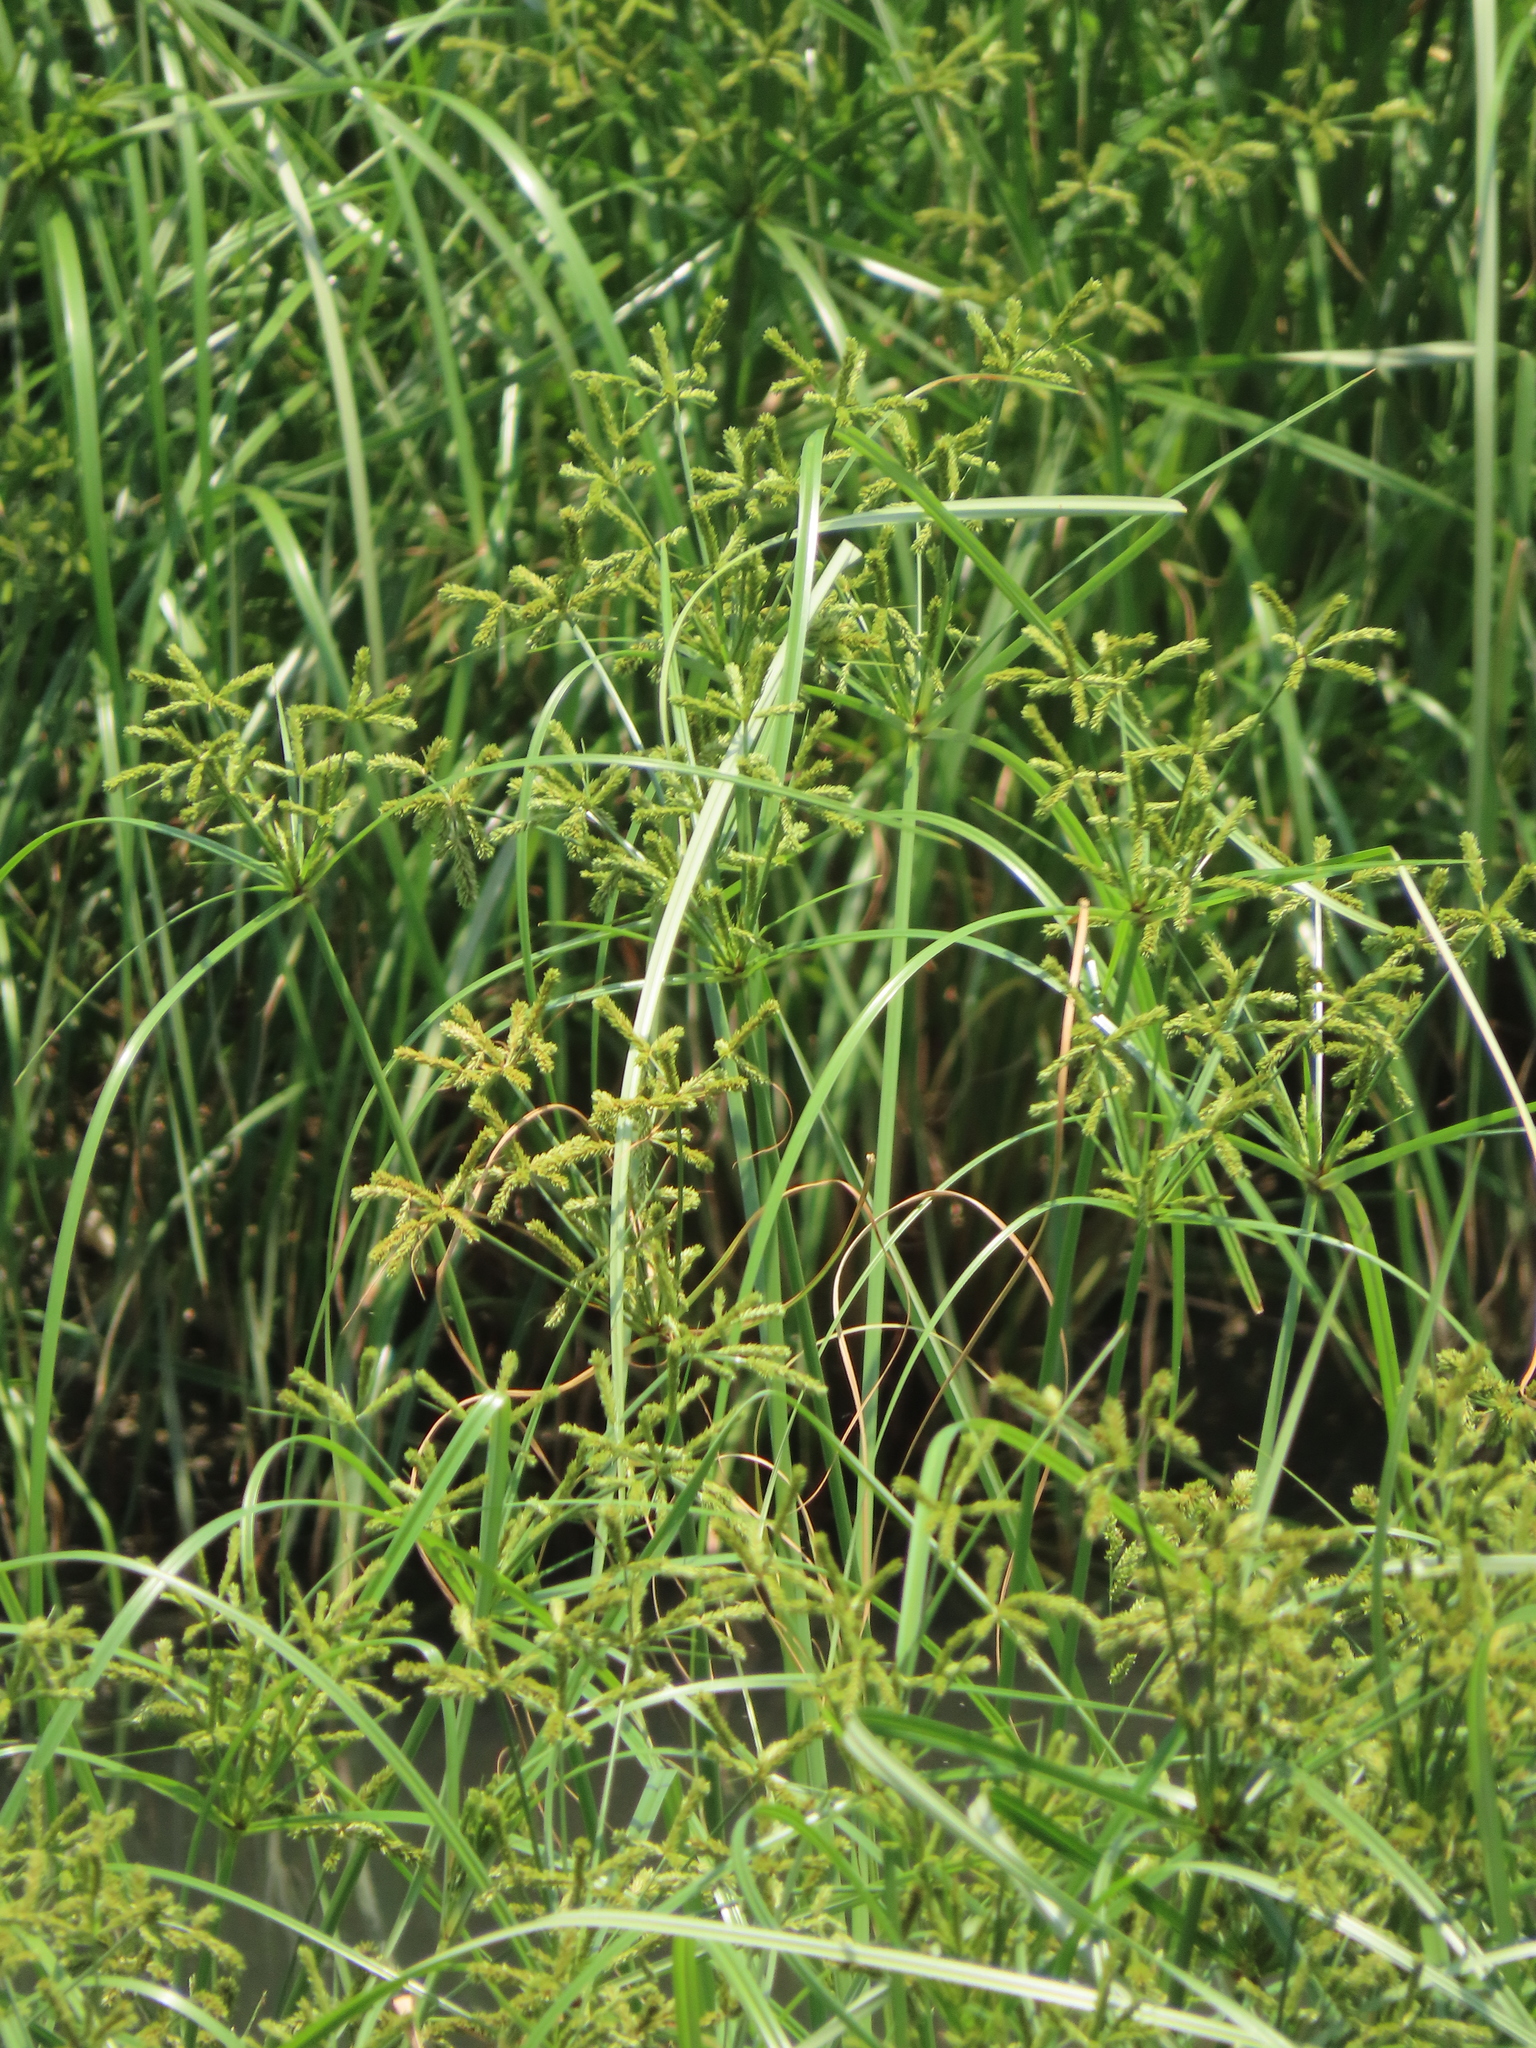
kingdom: Plantae
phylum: Tracheophyta
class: Liliopsida
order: Poales
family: Cyperaceae
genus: Cyperus
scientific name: Cyperus imbricatus
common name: Shingle flatsedge
